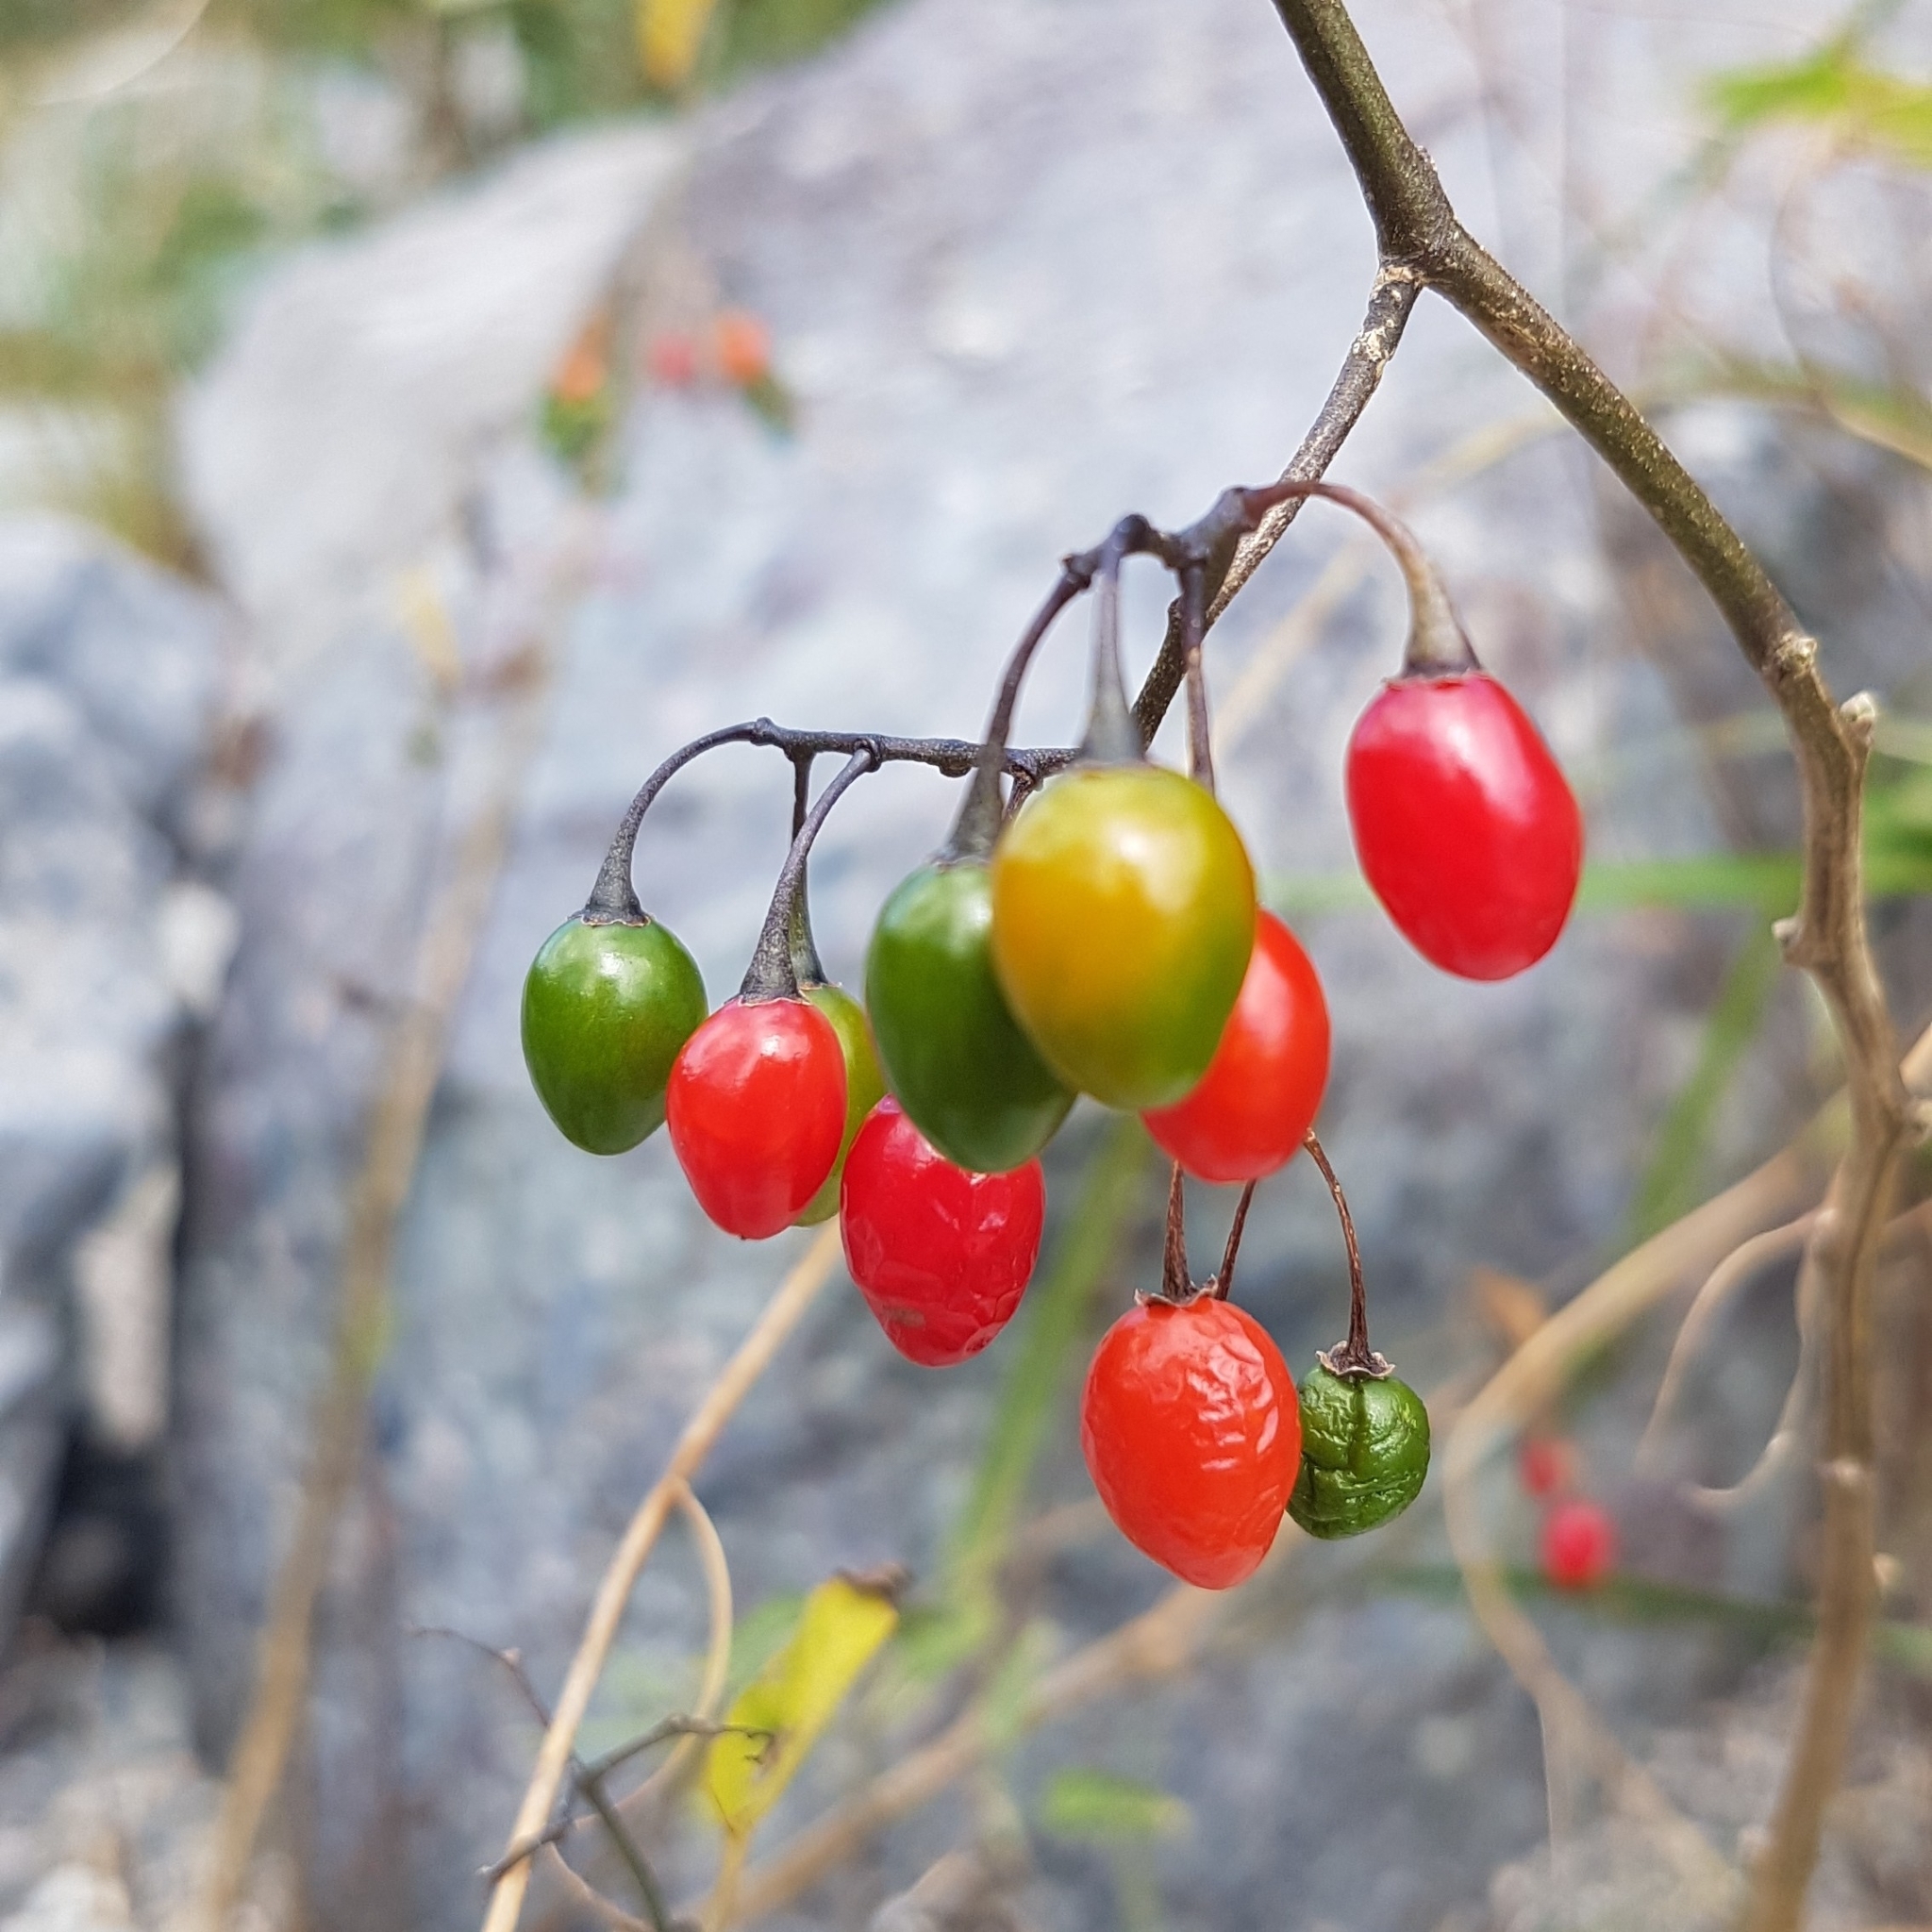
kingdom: Plantae
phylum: Tracheophyta
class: Magnoliopsida
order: Solanales
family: Solanaceae
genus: Solanum
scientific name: Solanum dulcamara
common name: Climbing nightshade
